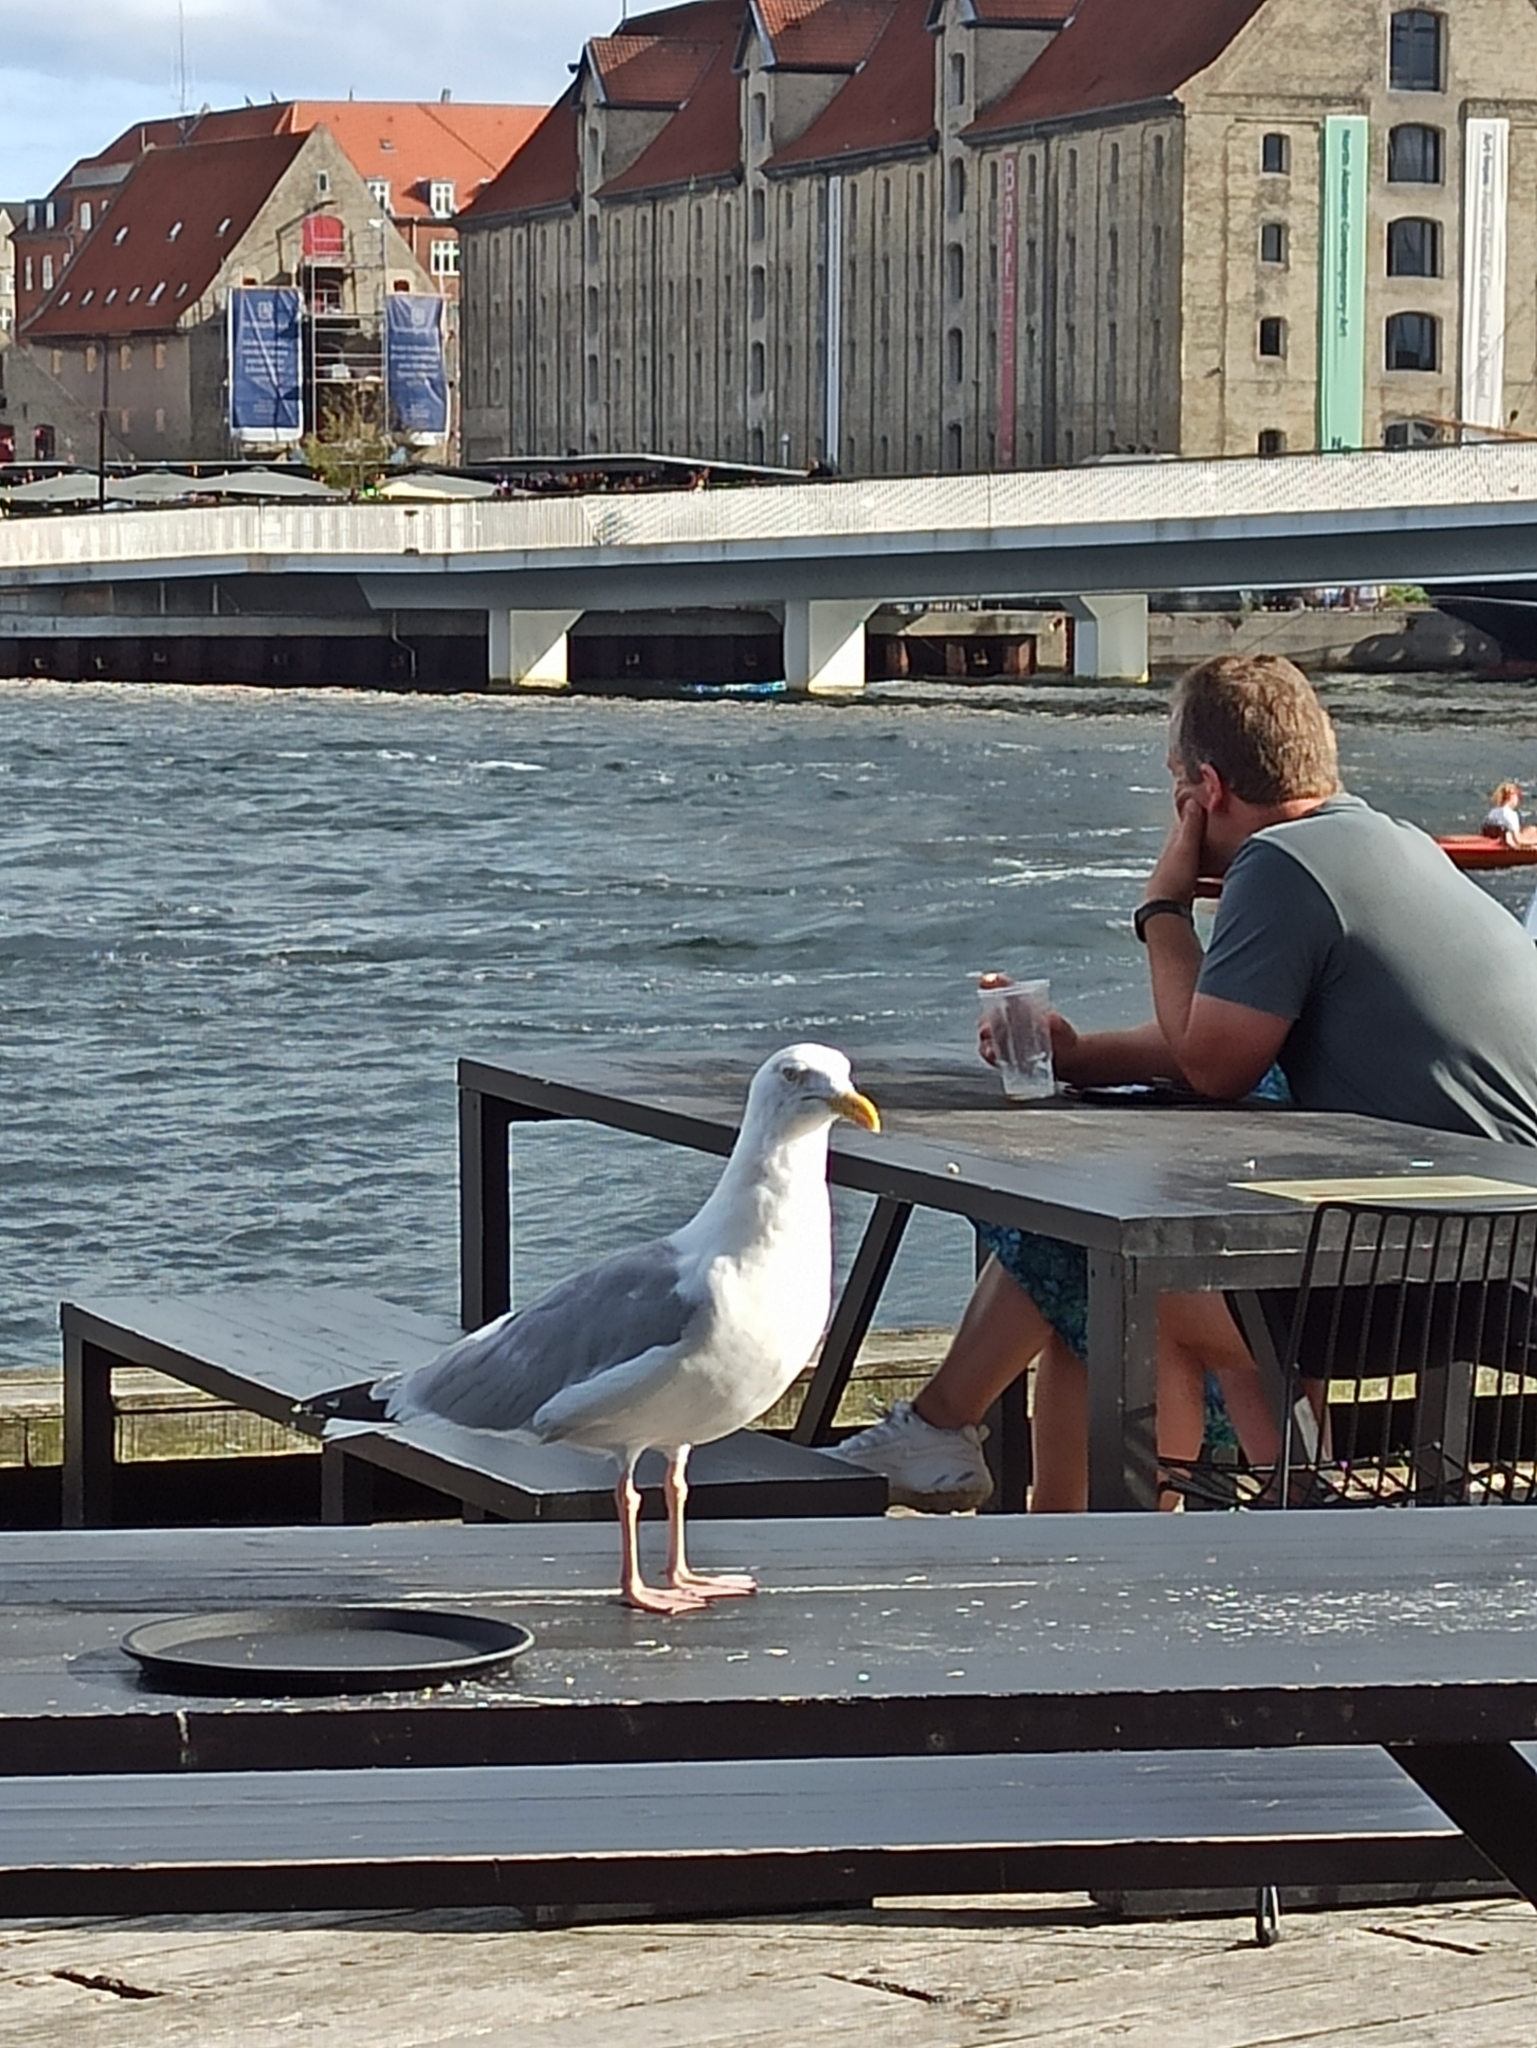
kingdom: Animalia
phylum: Chordata
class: Aves
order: Charadriiformes
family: Laridae
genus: Larus
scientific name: Larus argentatus
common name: Herring gull
